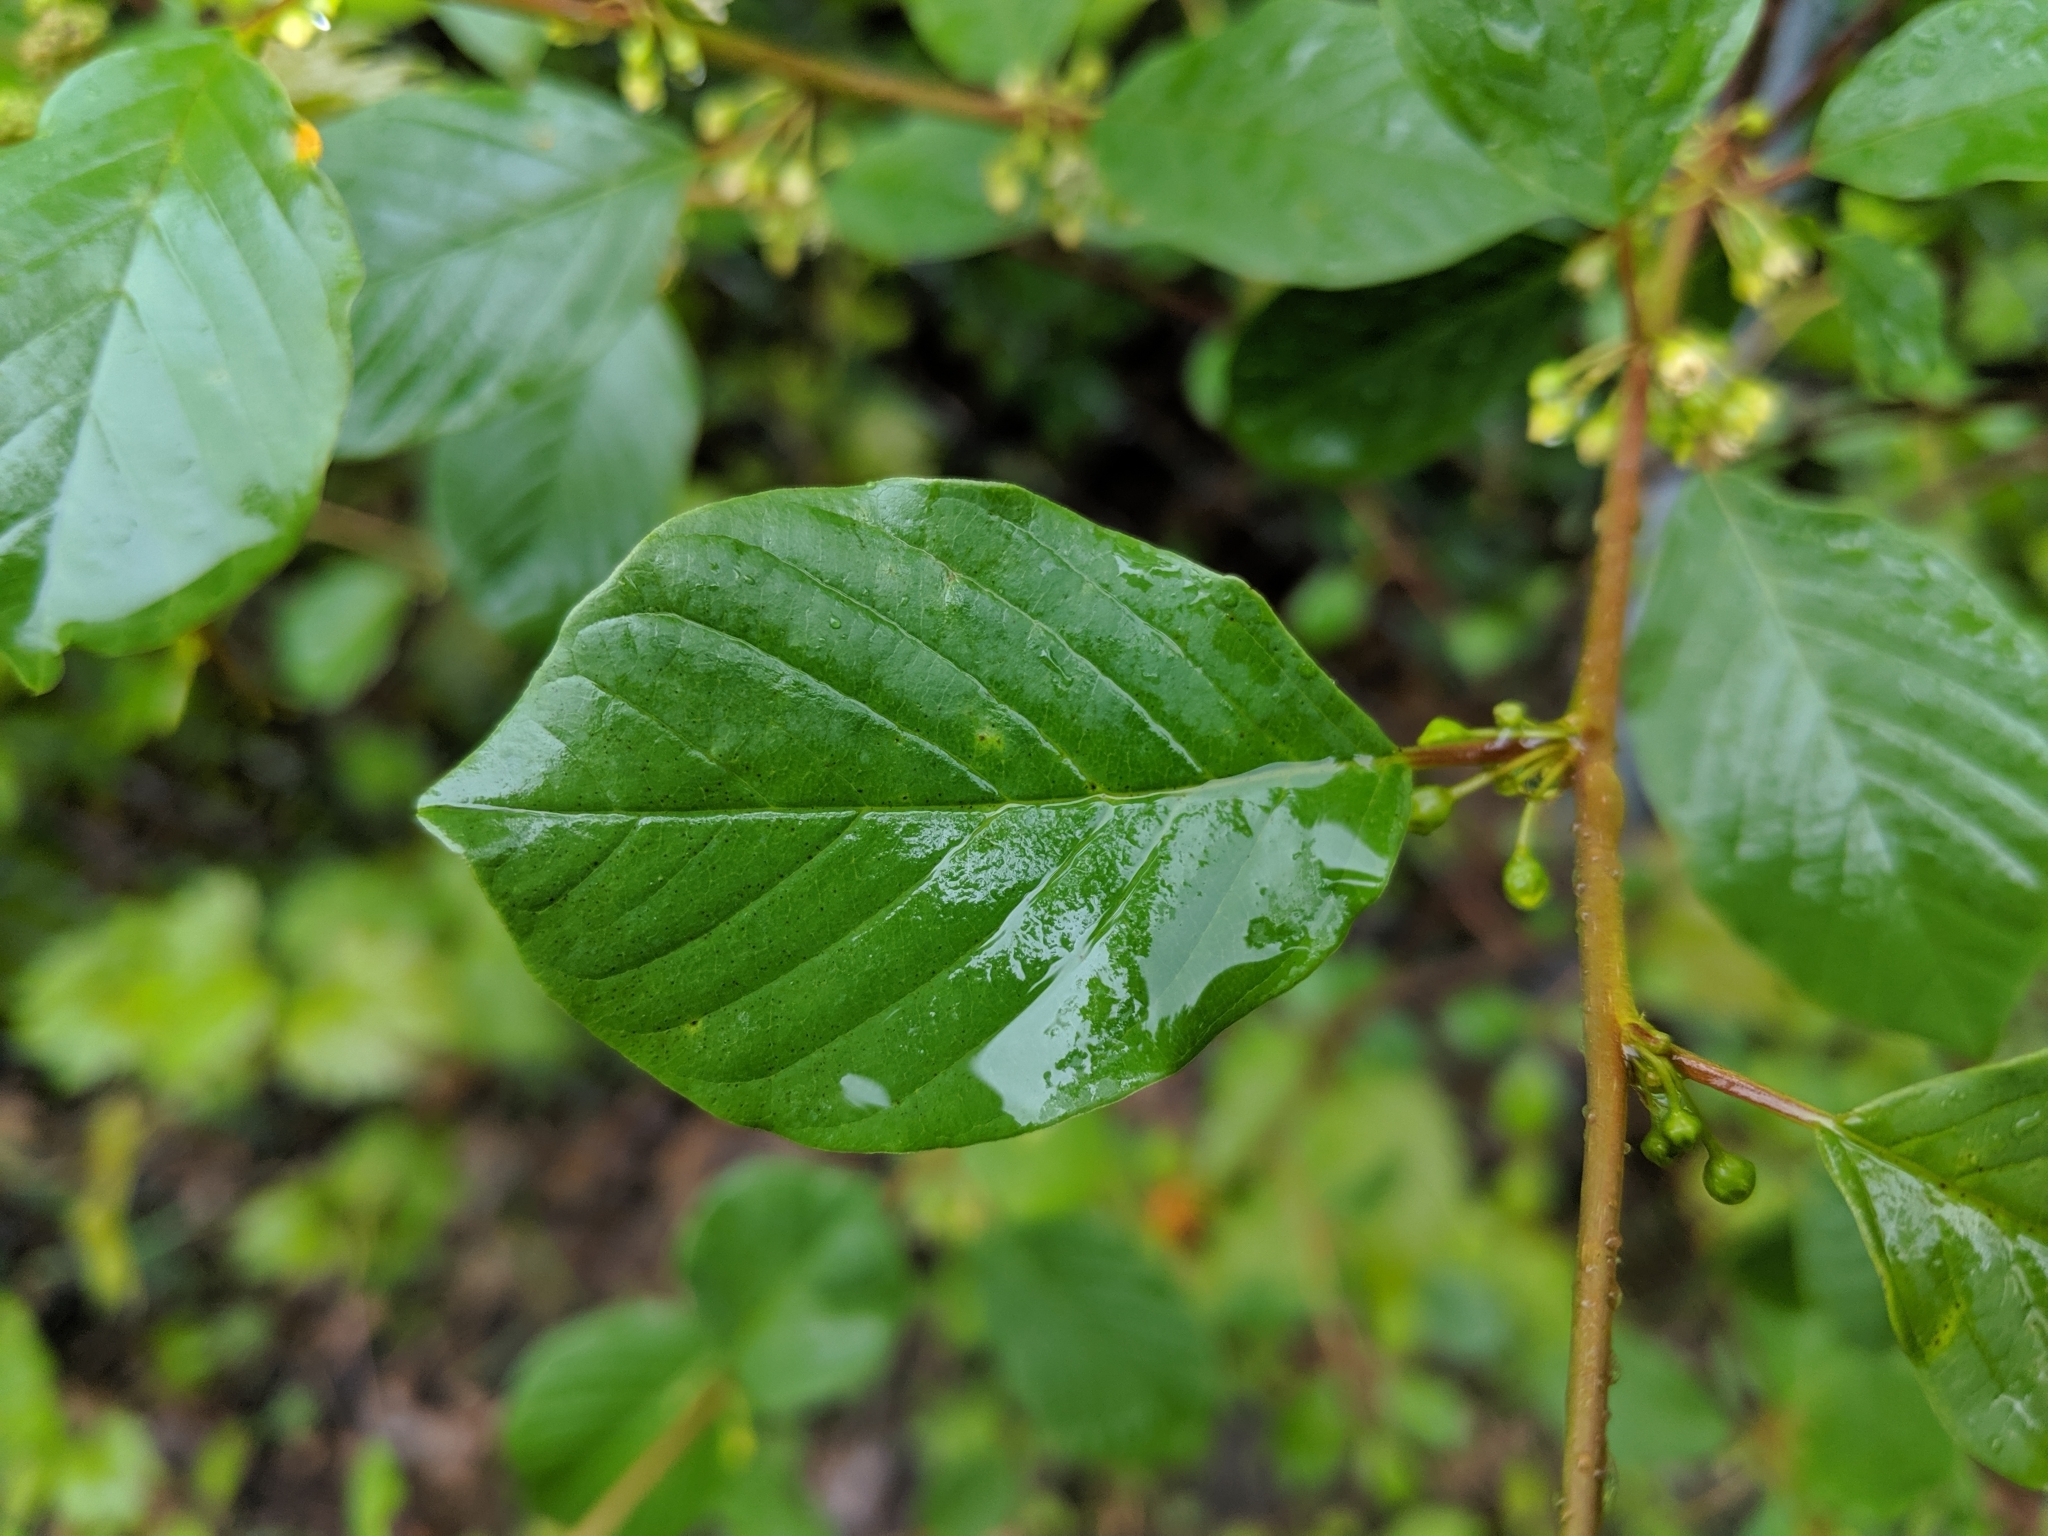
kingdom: Plantae
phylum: Tracheophyta
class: Magnoliopsida
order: Rosales
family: Rhamnaceae
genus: Frangula
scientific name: Frangula alnus
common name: Alder buckthorn
